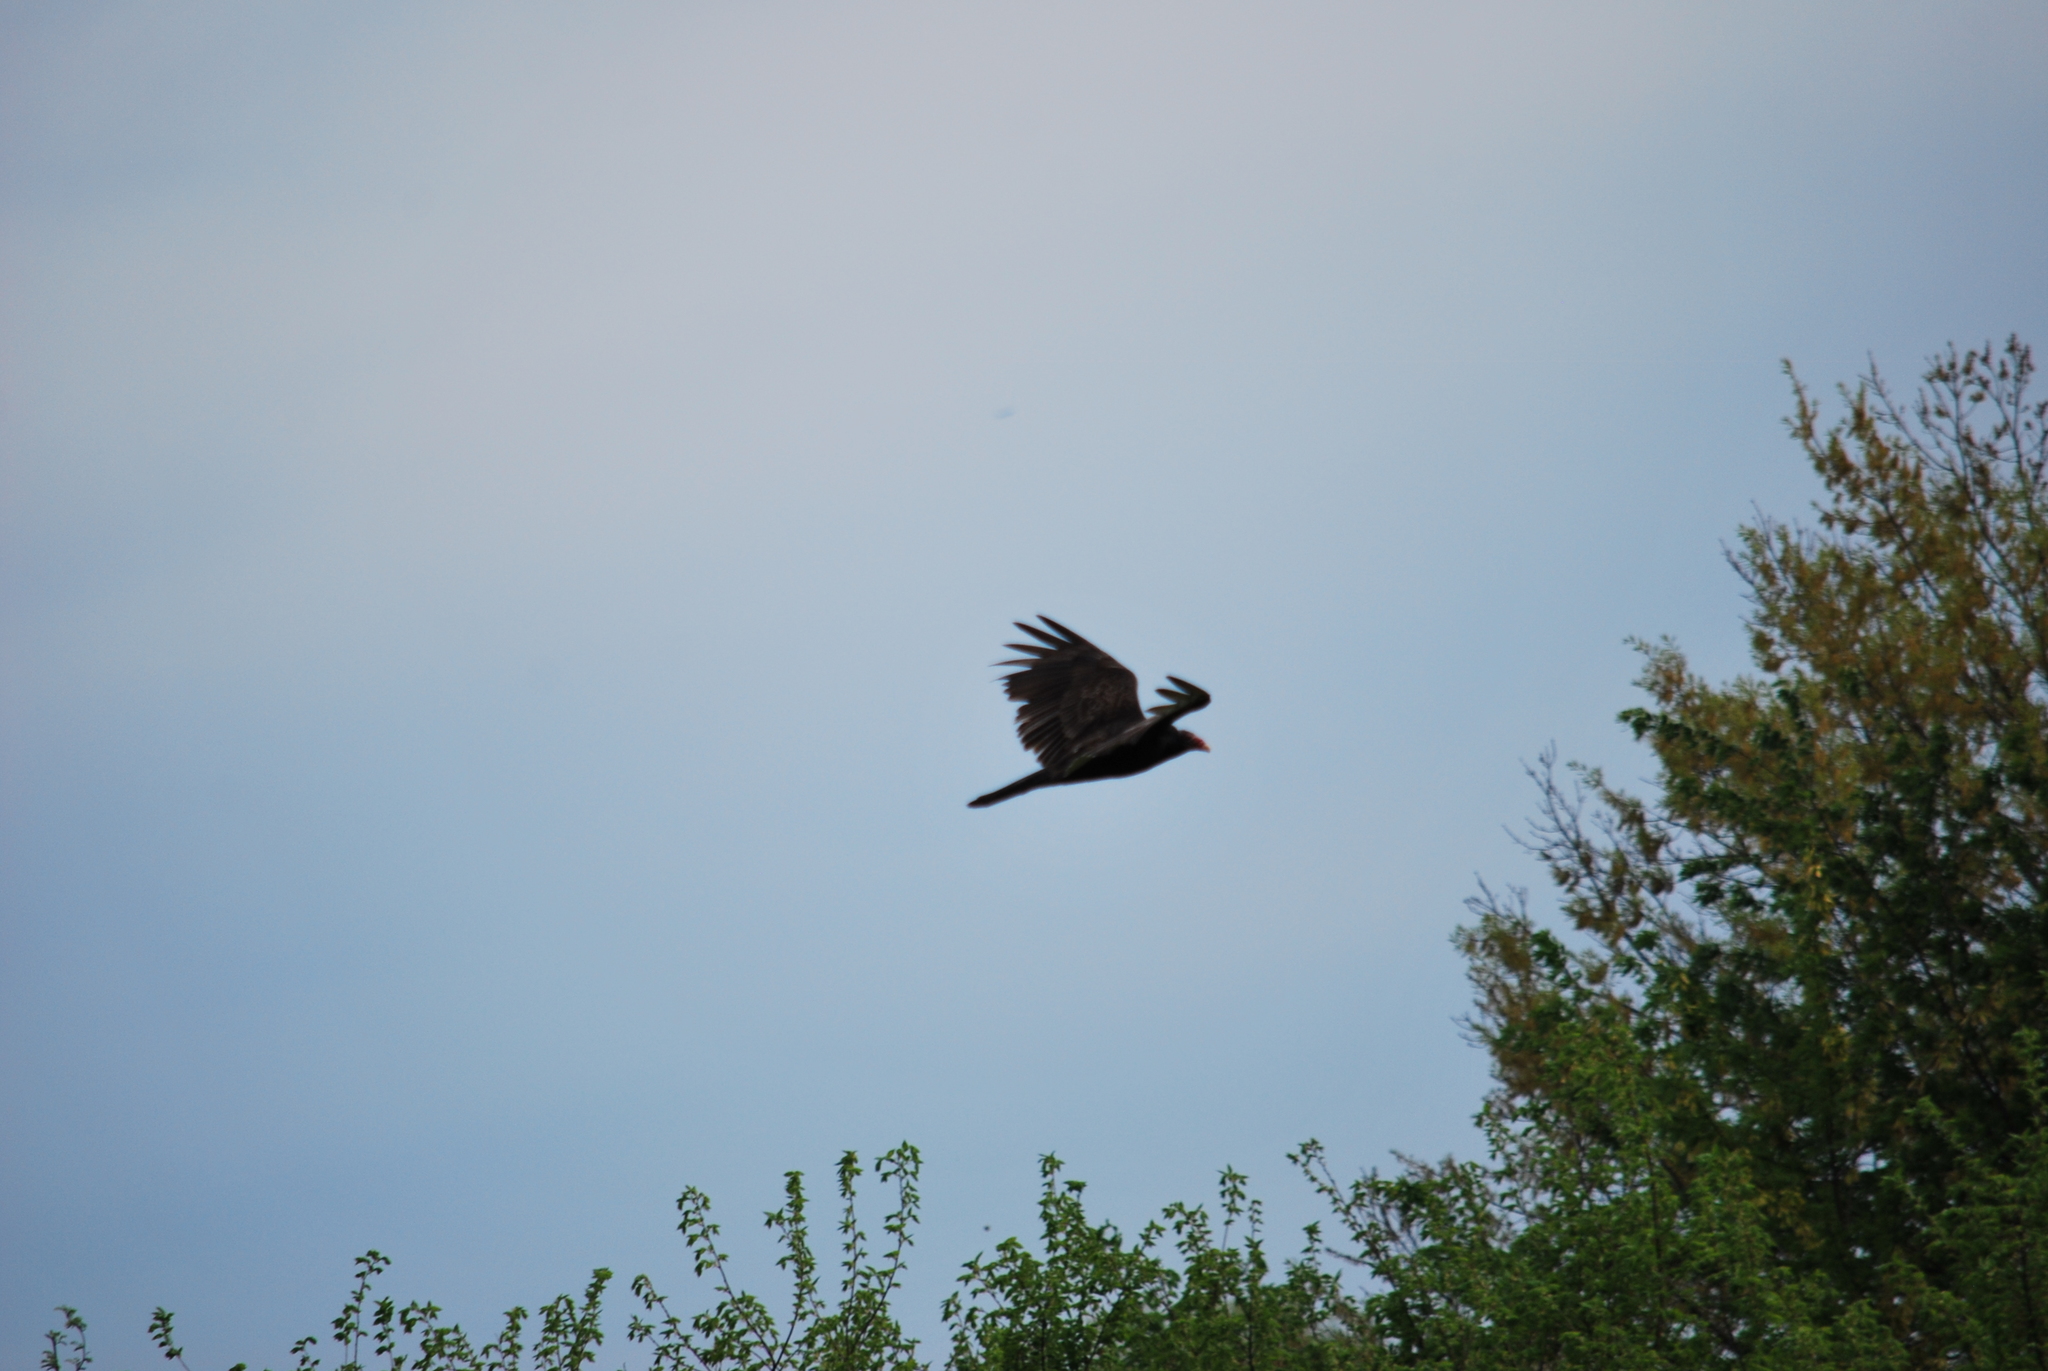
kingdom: Animalia
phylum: Chordata
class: Aves
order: Accipitriformes
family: Cathartidae
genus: Cathartes
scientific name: Cathartes aura
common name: Turkey vulture
